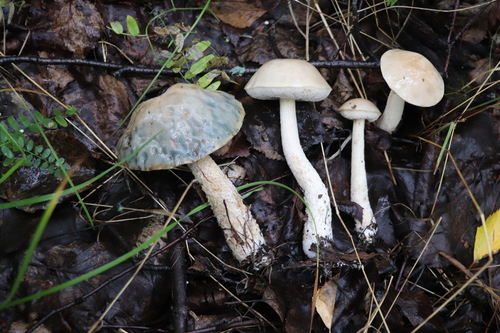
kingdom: Fungi
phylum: Basidiomycota
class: Agaricomycetes
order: Boletales
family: Boletaceae
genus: Leccinum
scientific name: Leccinum holopus
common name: Ghost bolete
